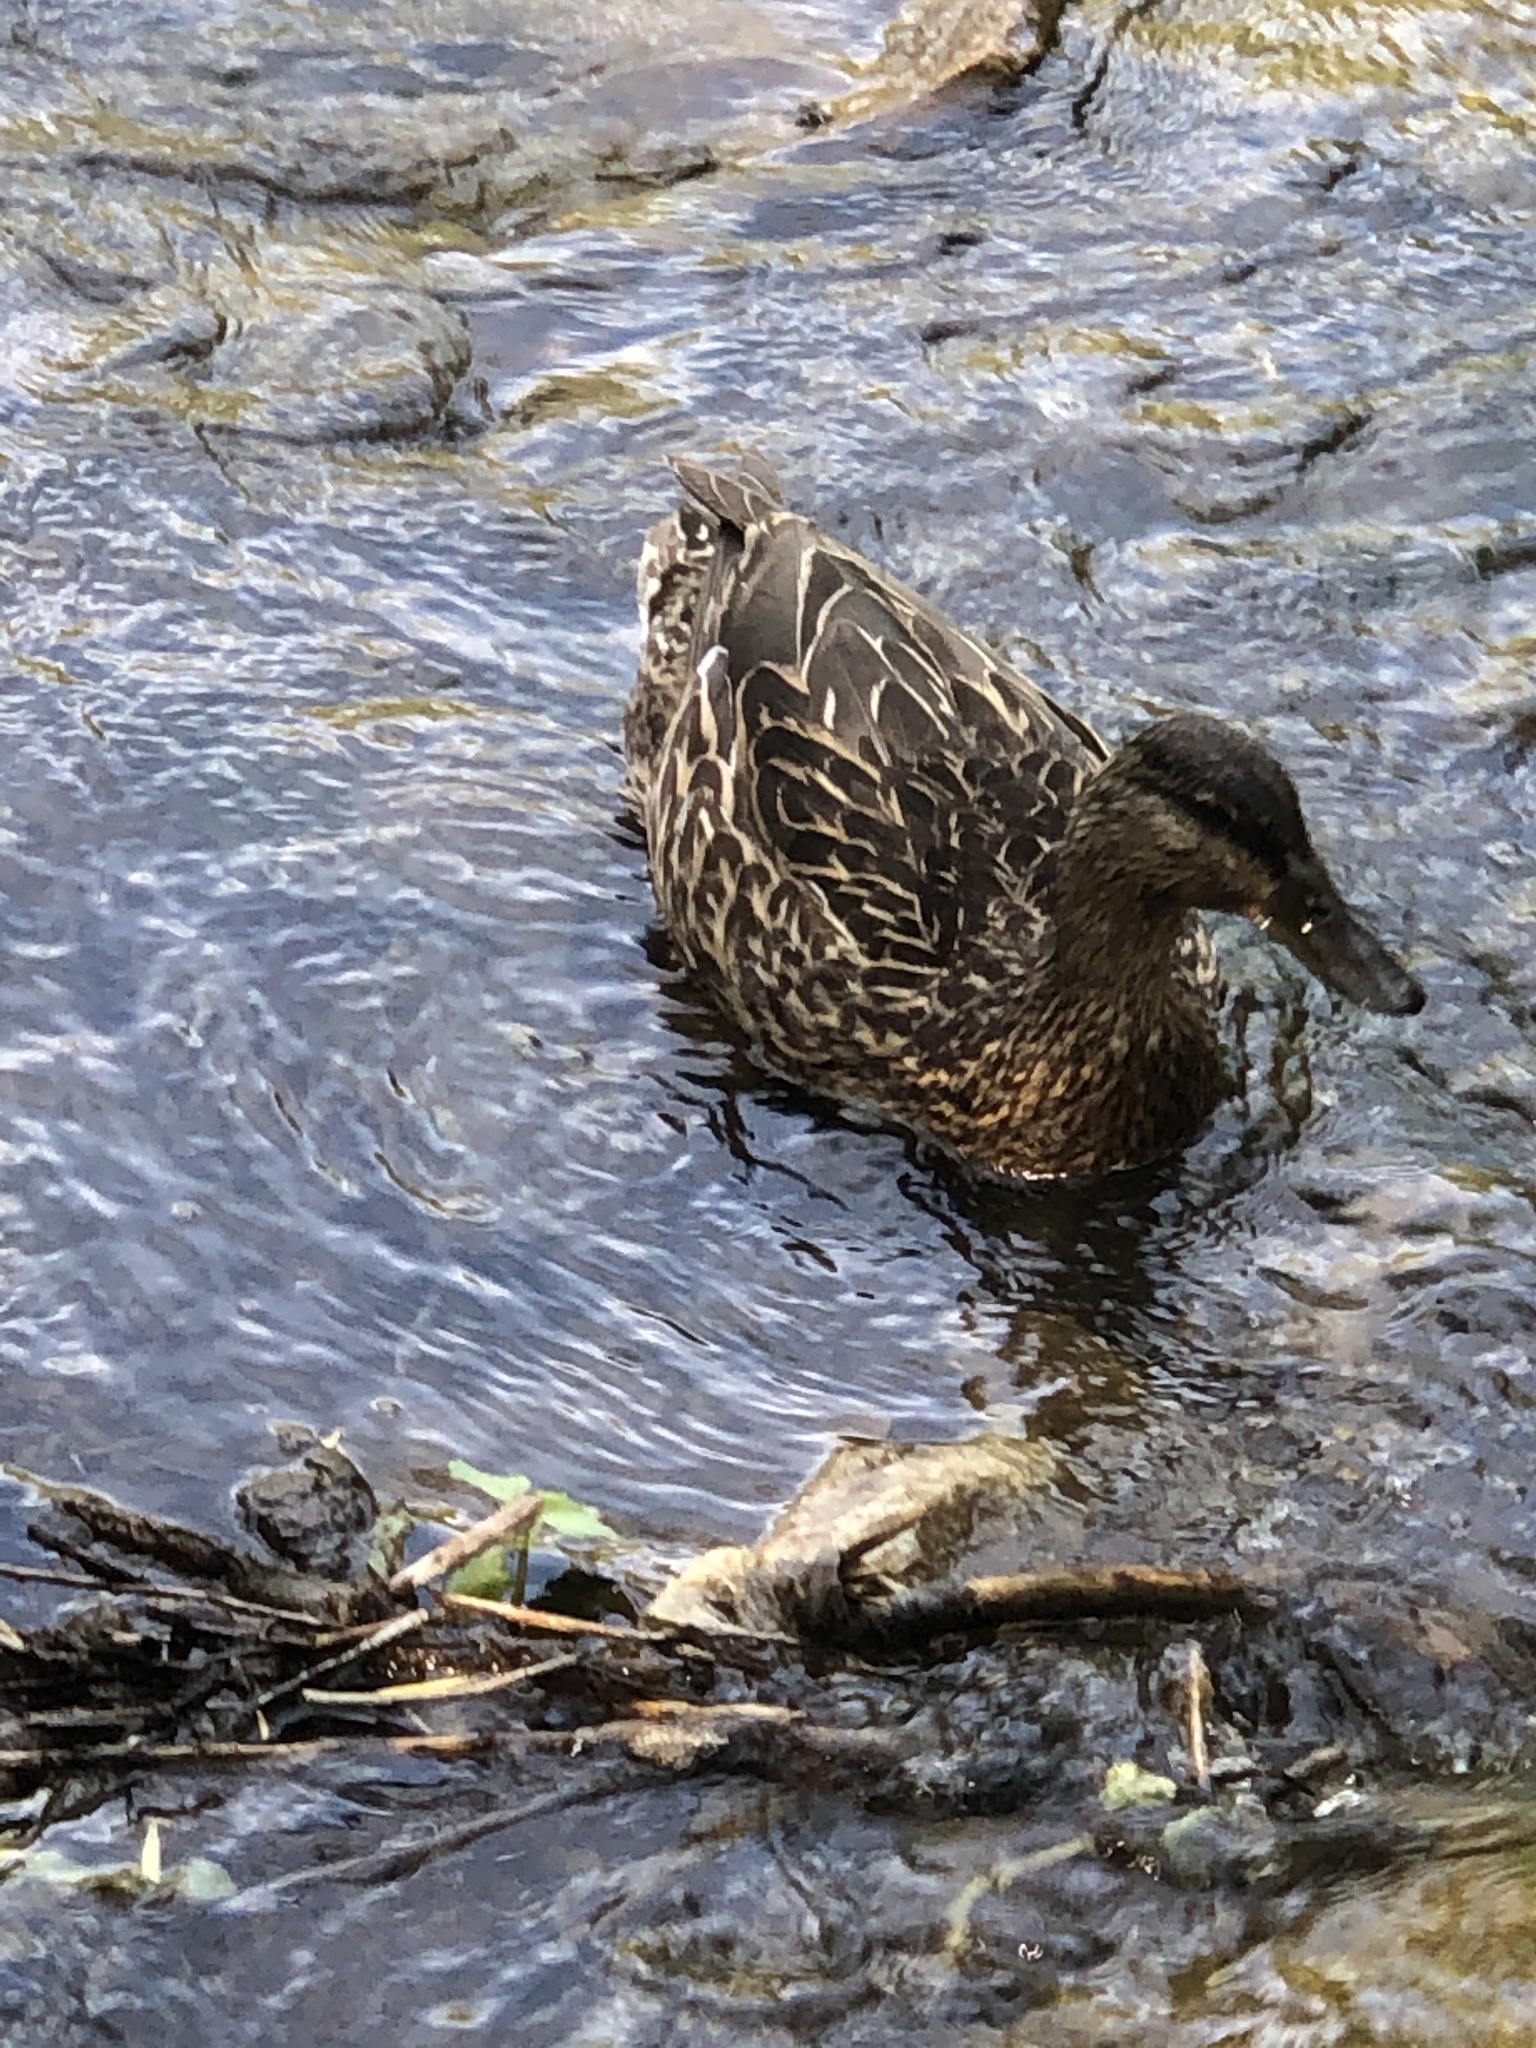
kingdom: Animalia
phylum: Chordata
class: Aves
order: Anseriformes
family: Anatidae
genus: Anas
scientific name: Anas platyrhynchos
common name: Mallard
